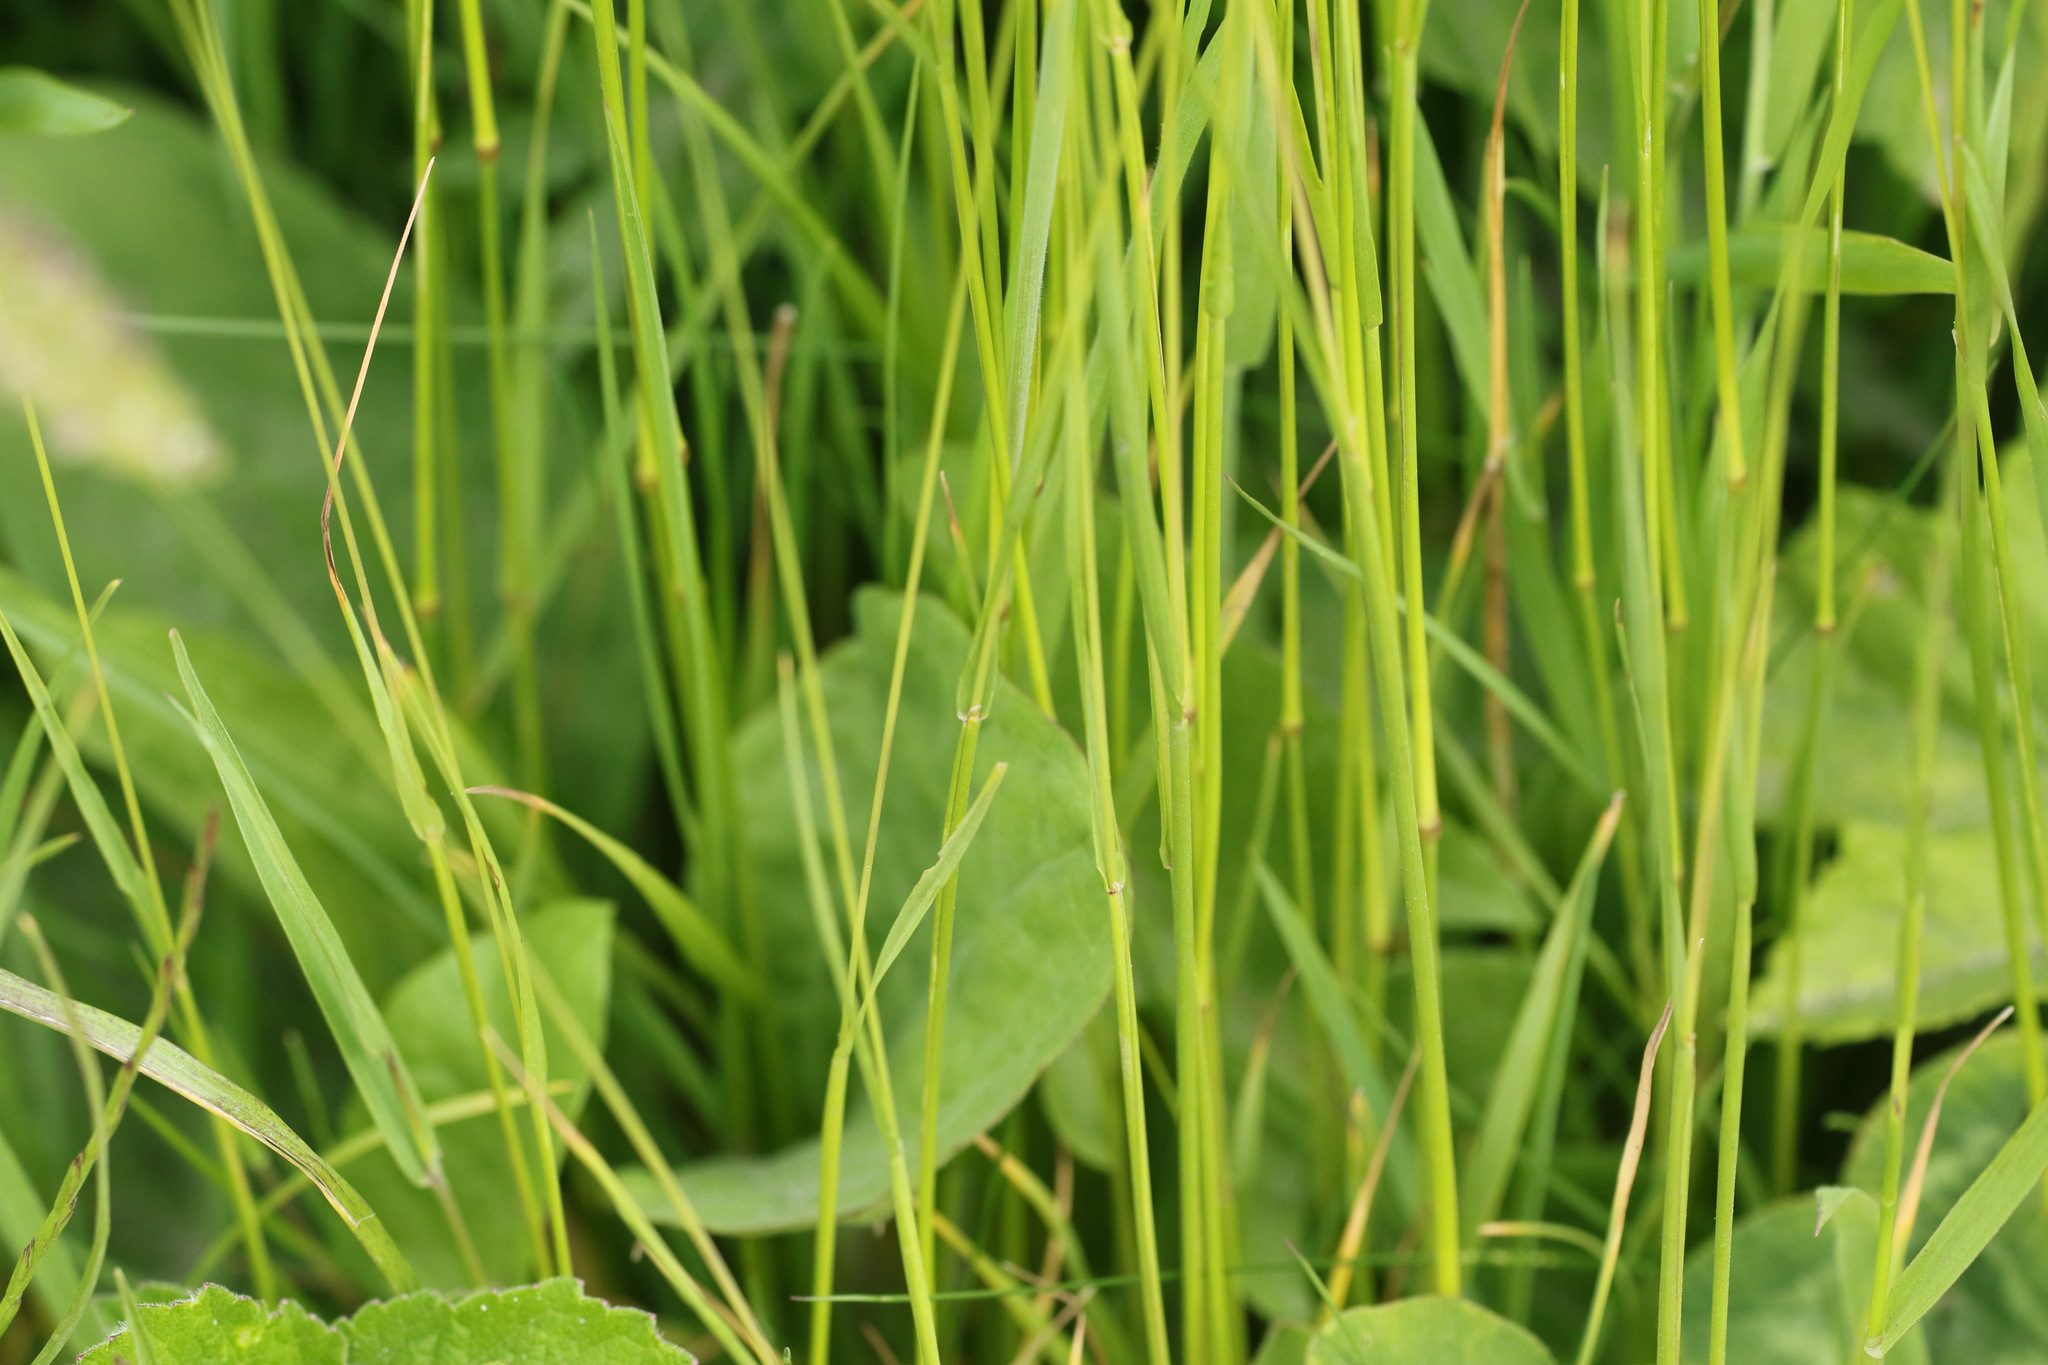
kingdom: Plantae
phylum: Tracheophyta
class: Liliopsida
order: Poales
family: Poaceae
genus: Cynosurus
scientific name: Cynosurus cristatus
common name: Crested dog's-tail
